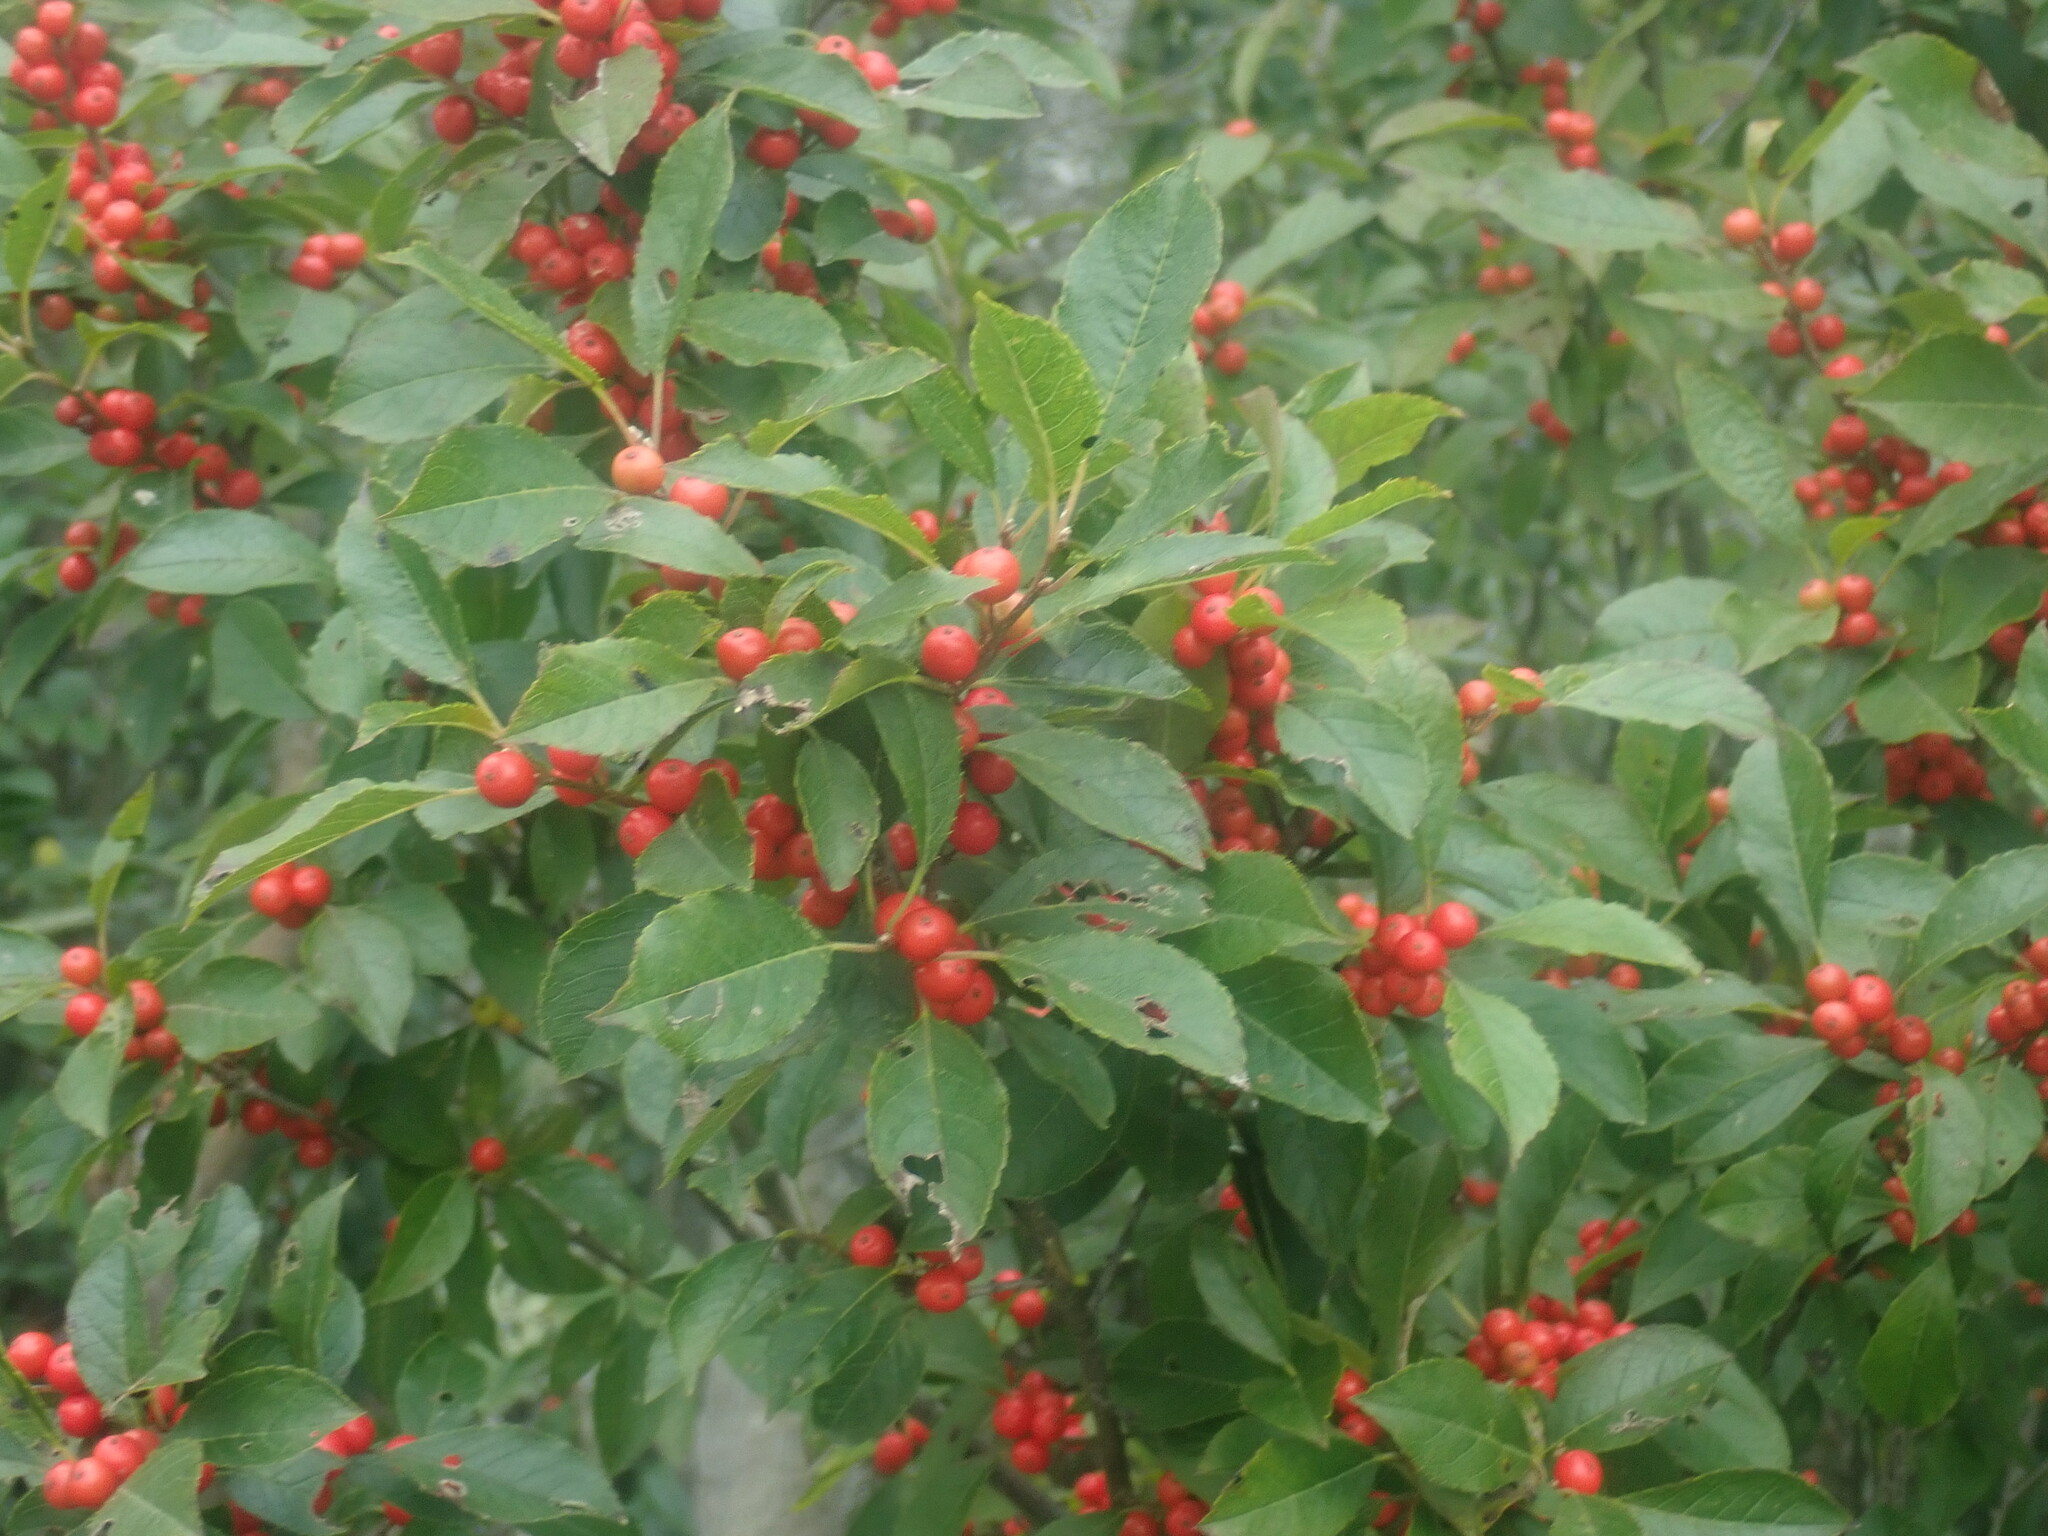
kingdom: Plantae
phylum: Tracheophyta
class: Magnoliopsida
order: Aquifoliales
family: Aquifoliaceae
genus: Ilex
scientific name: Ilex verticillata
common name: Virginia winterberry
